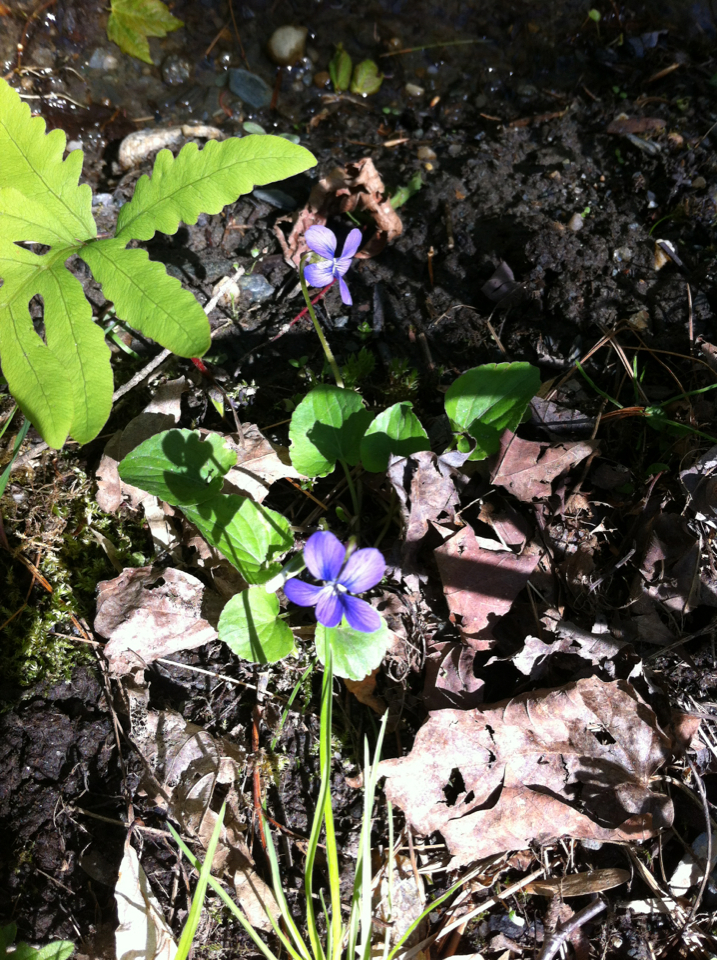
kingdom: Plantae
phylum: Tracheophyta
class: Magnoliopsida
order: Malpighiales
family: Violaceae
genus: Viola
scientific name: Viola sororia
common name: Dooryard violet
